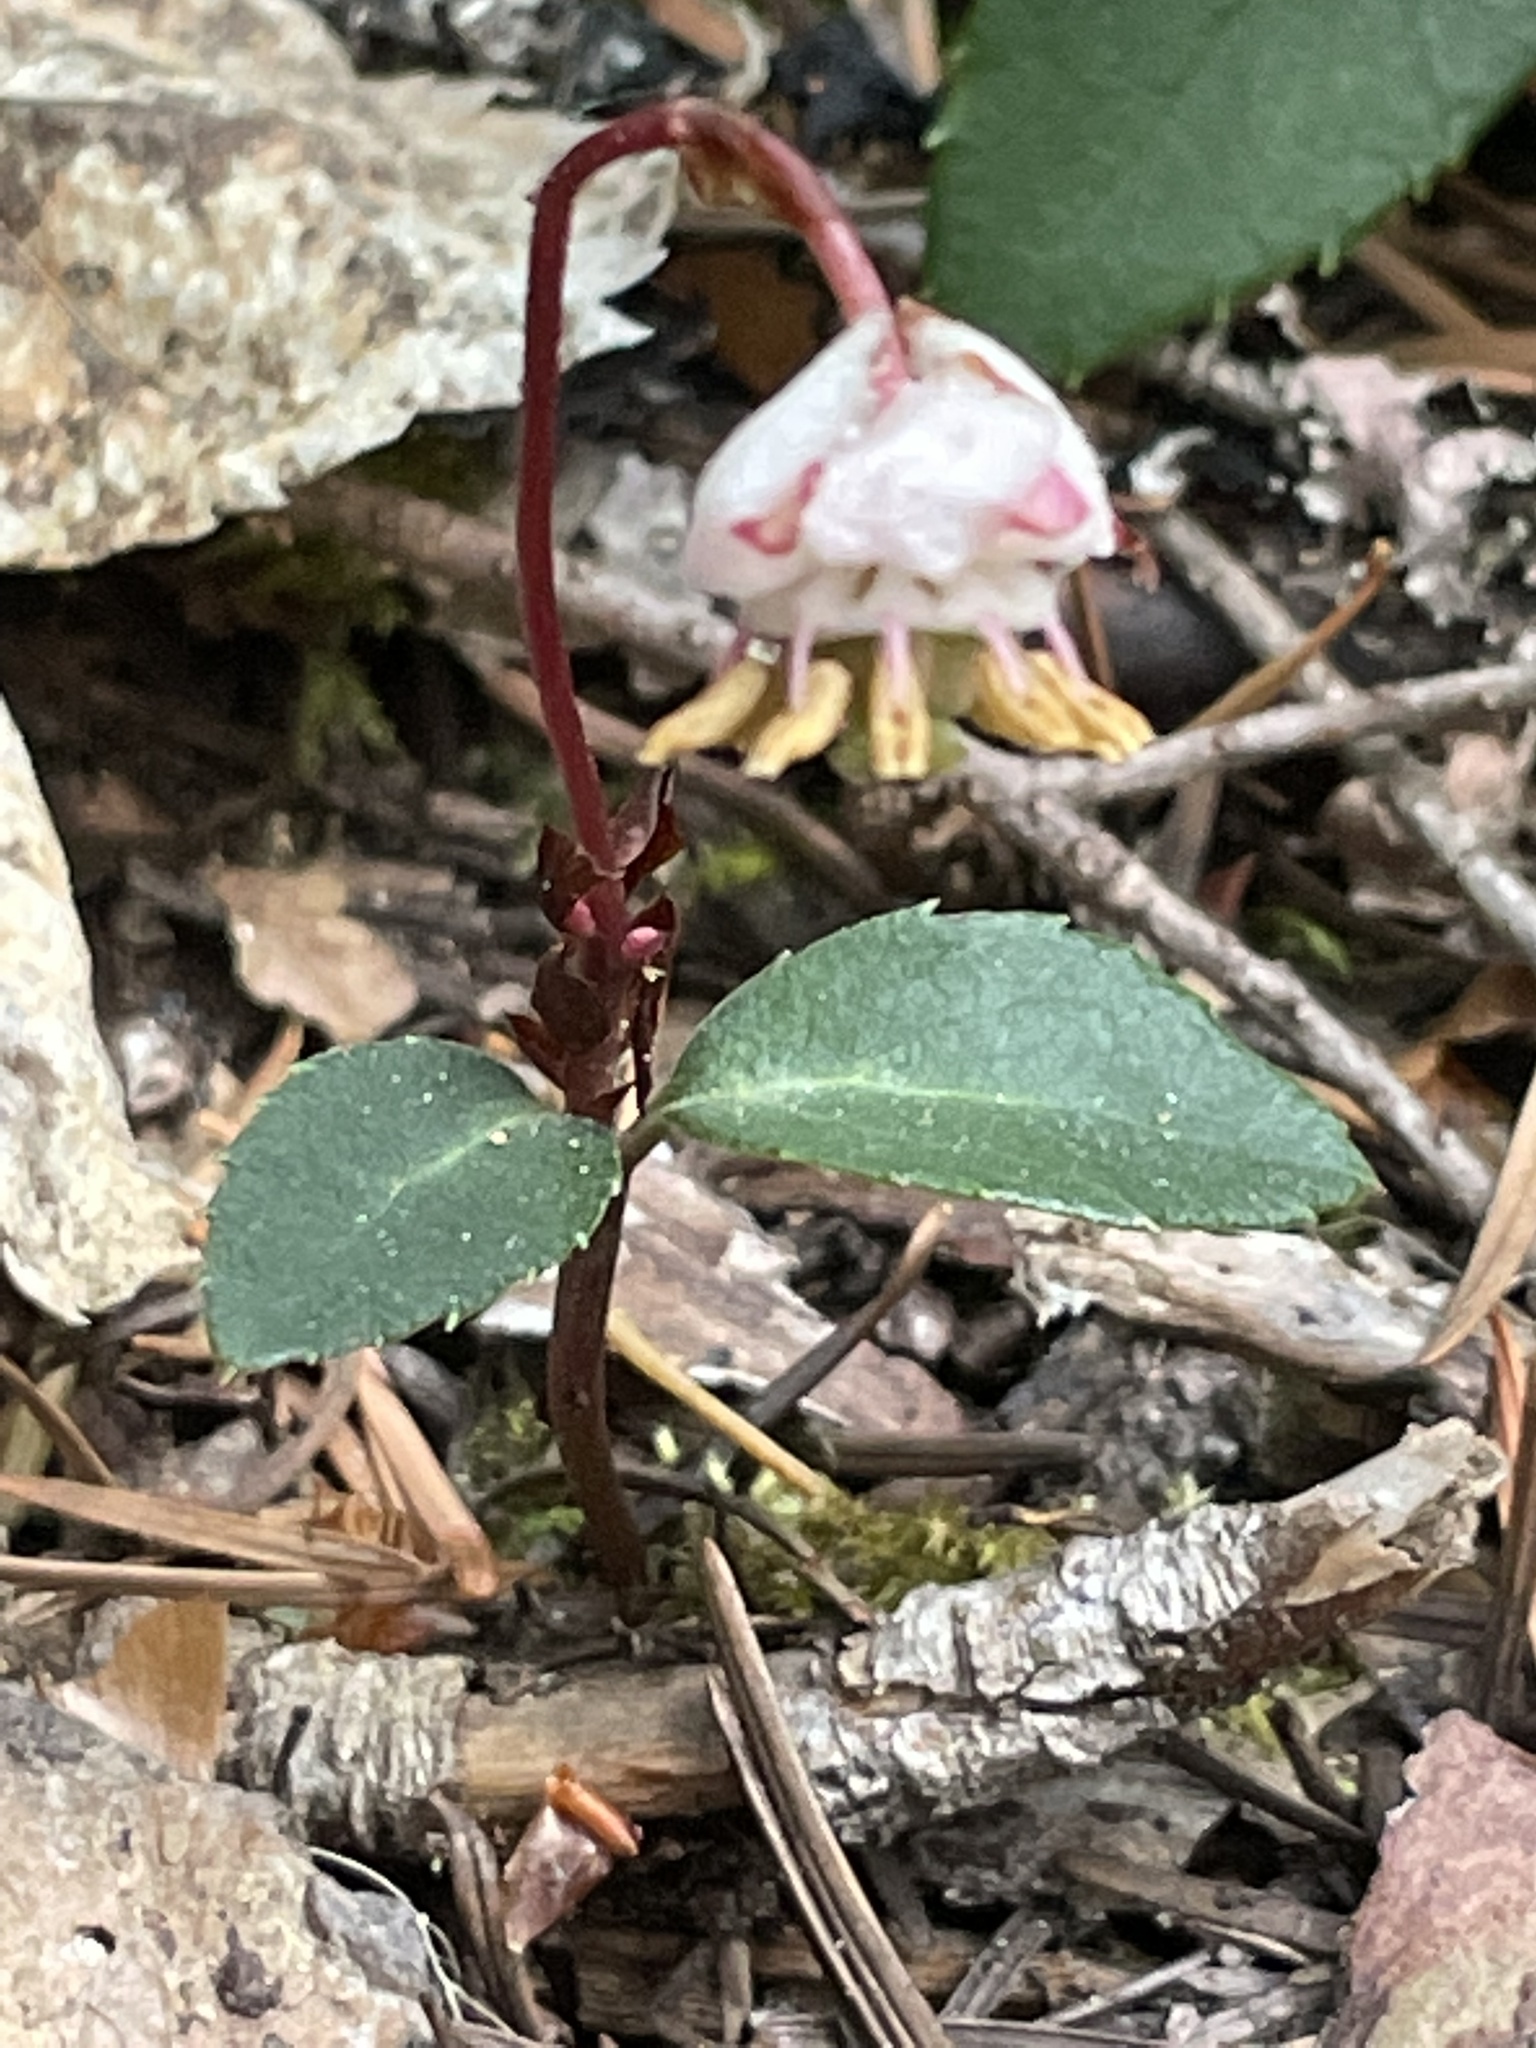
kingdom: Plantae
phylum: Tracheophyta
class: Magnoliopsida
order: Ericales
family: Ericaceae
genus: Chimaphila
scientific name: Chimaphila menziesii
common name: Menzies' pipsissewa
